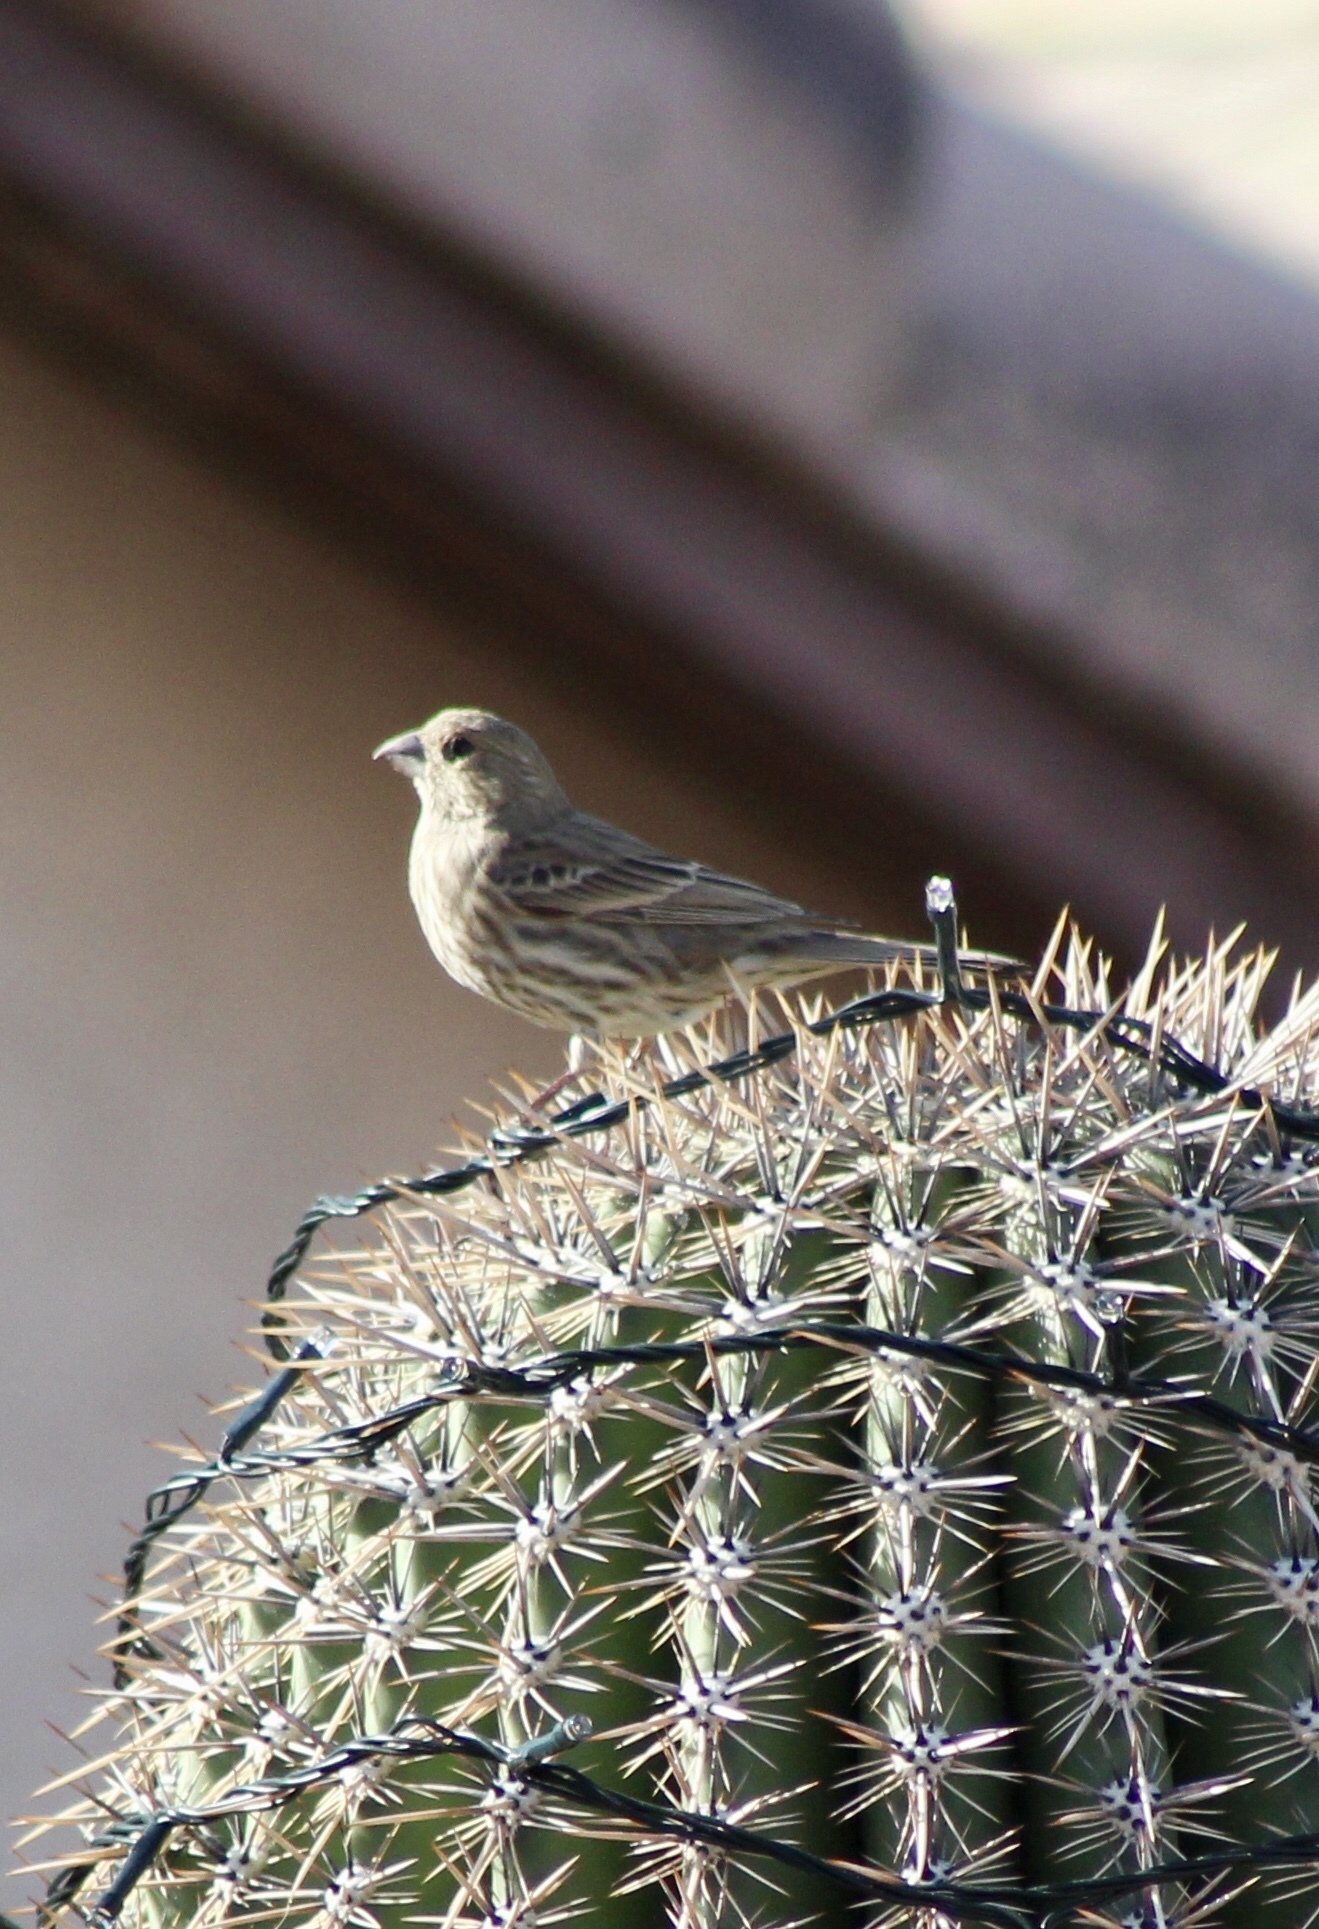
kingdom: Animalia
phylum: Chordata
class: Aves
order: Passeriformes
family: Fringillidae
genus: Haemorhous
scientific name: Haemorhous mexicanus
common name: House finch
